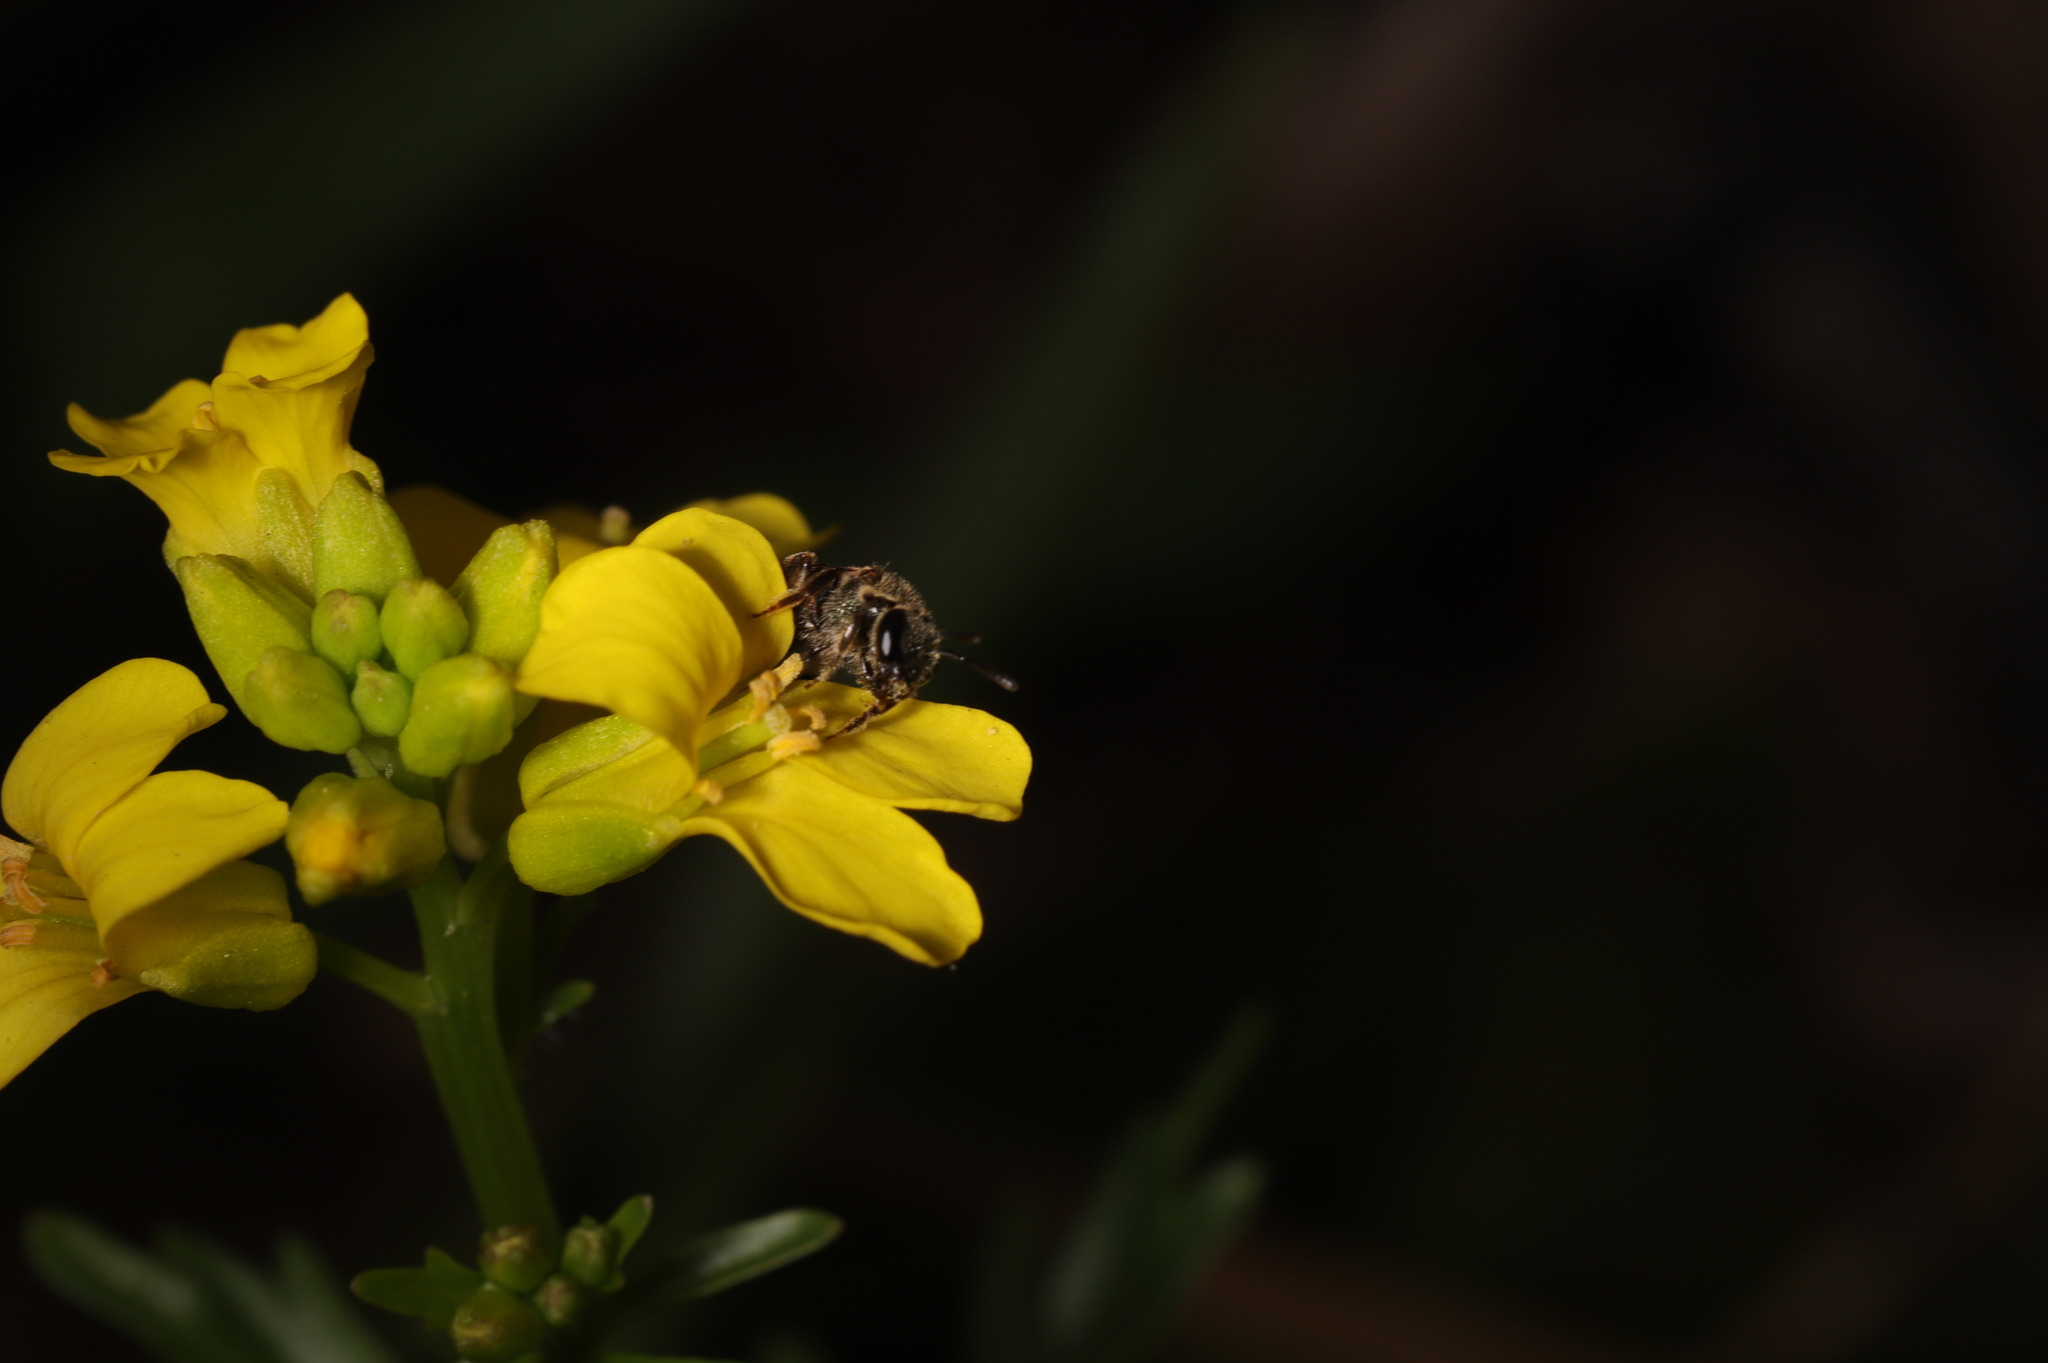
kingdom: Animalia
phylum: Arthropoda
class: Insecta
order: Hymenoptera
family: Halictidae
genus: Dialictus
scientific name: Dialictus
